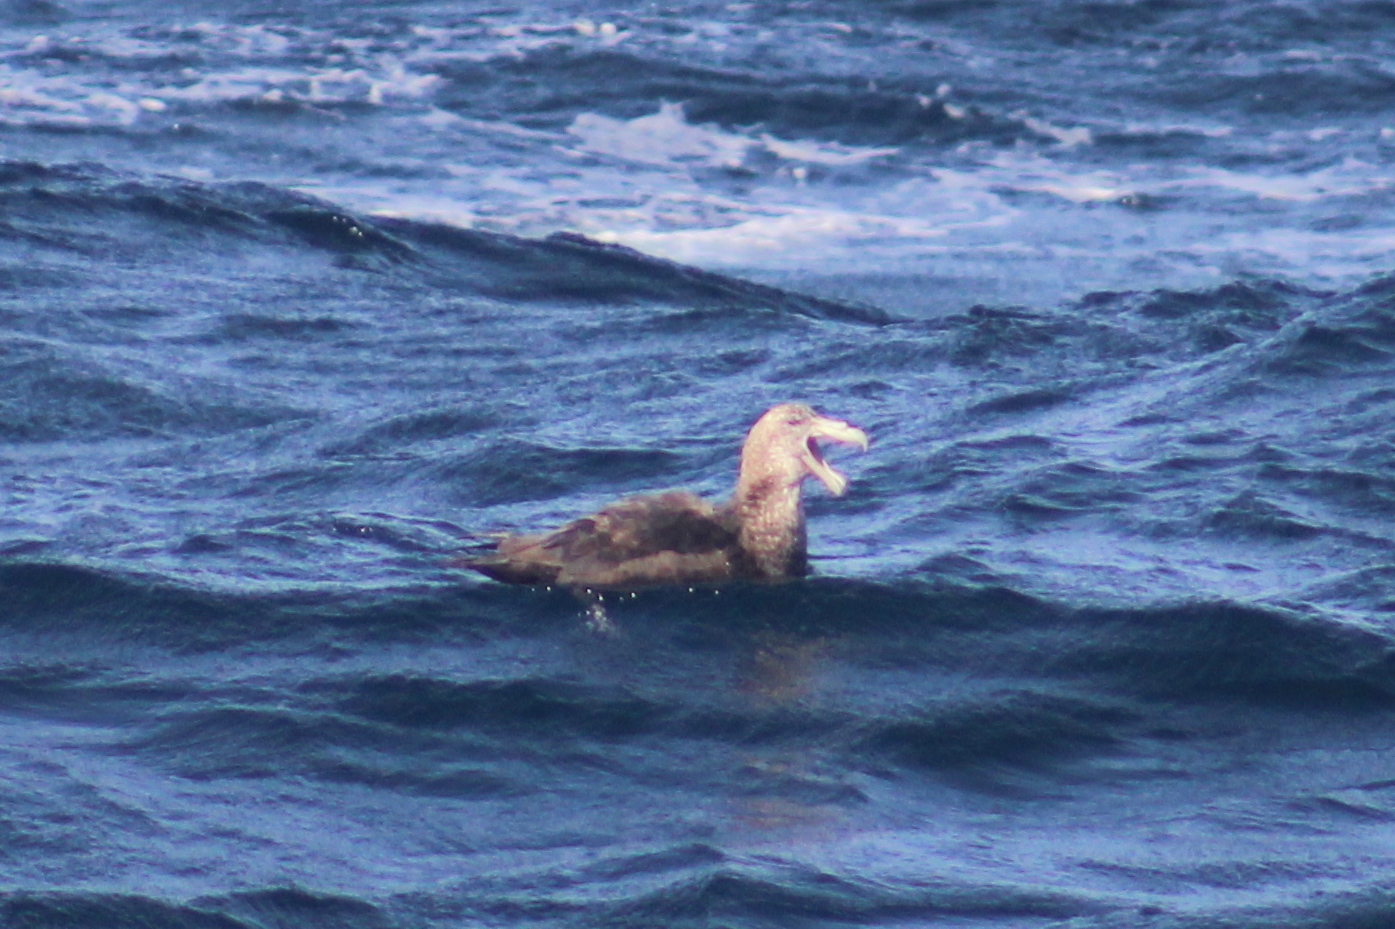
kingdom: Animalia
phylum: Chordata
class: Aves
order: Procellariiformes
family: Procellariidae
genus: Macronectes
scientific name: Macronectes giganteus
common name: Southern giant petrel
